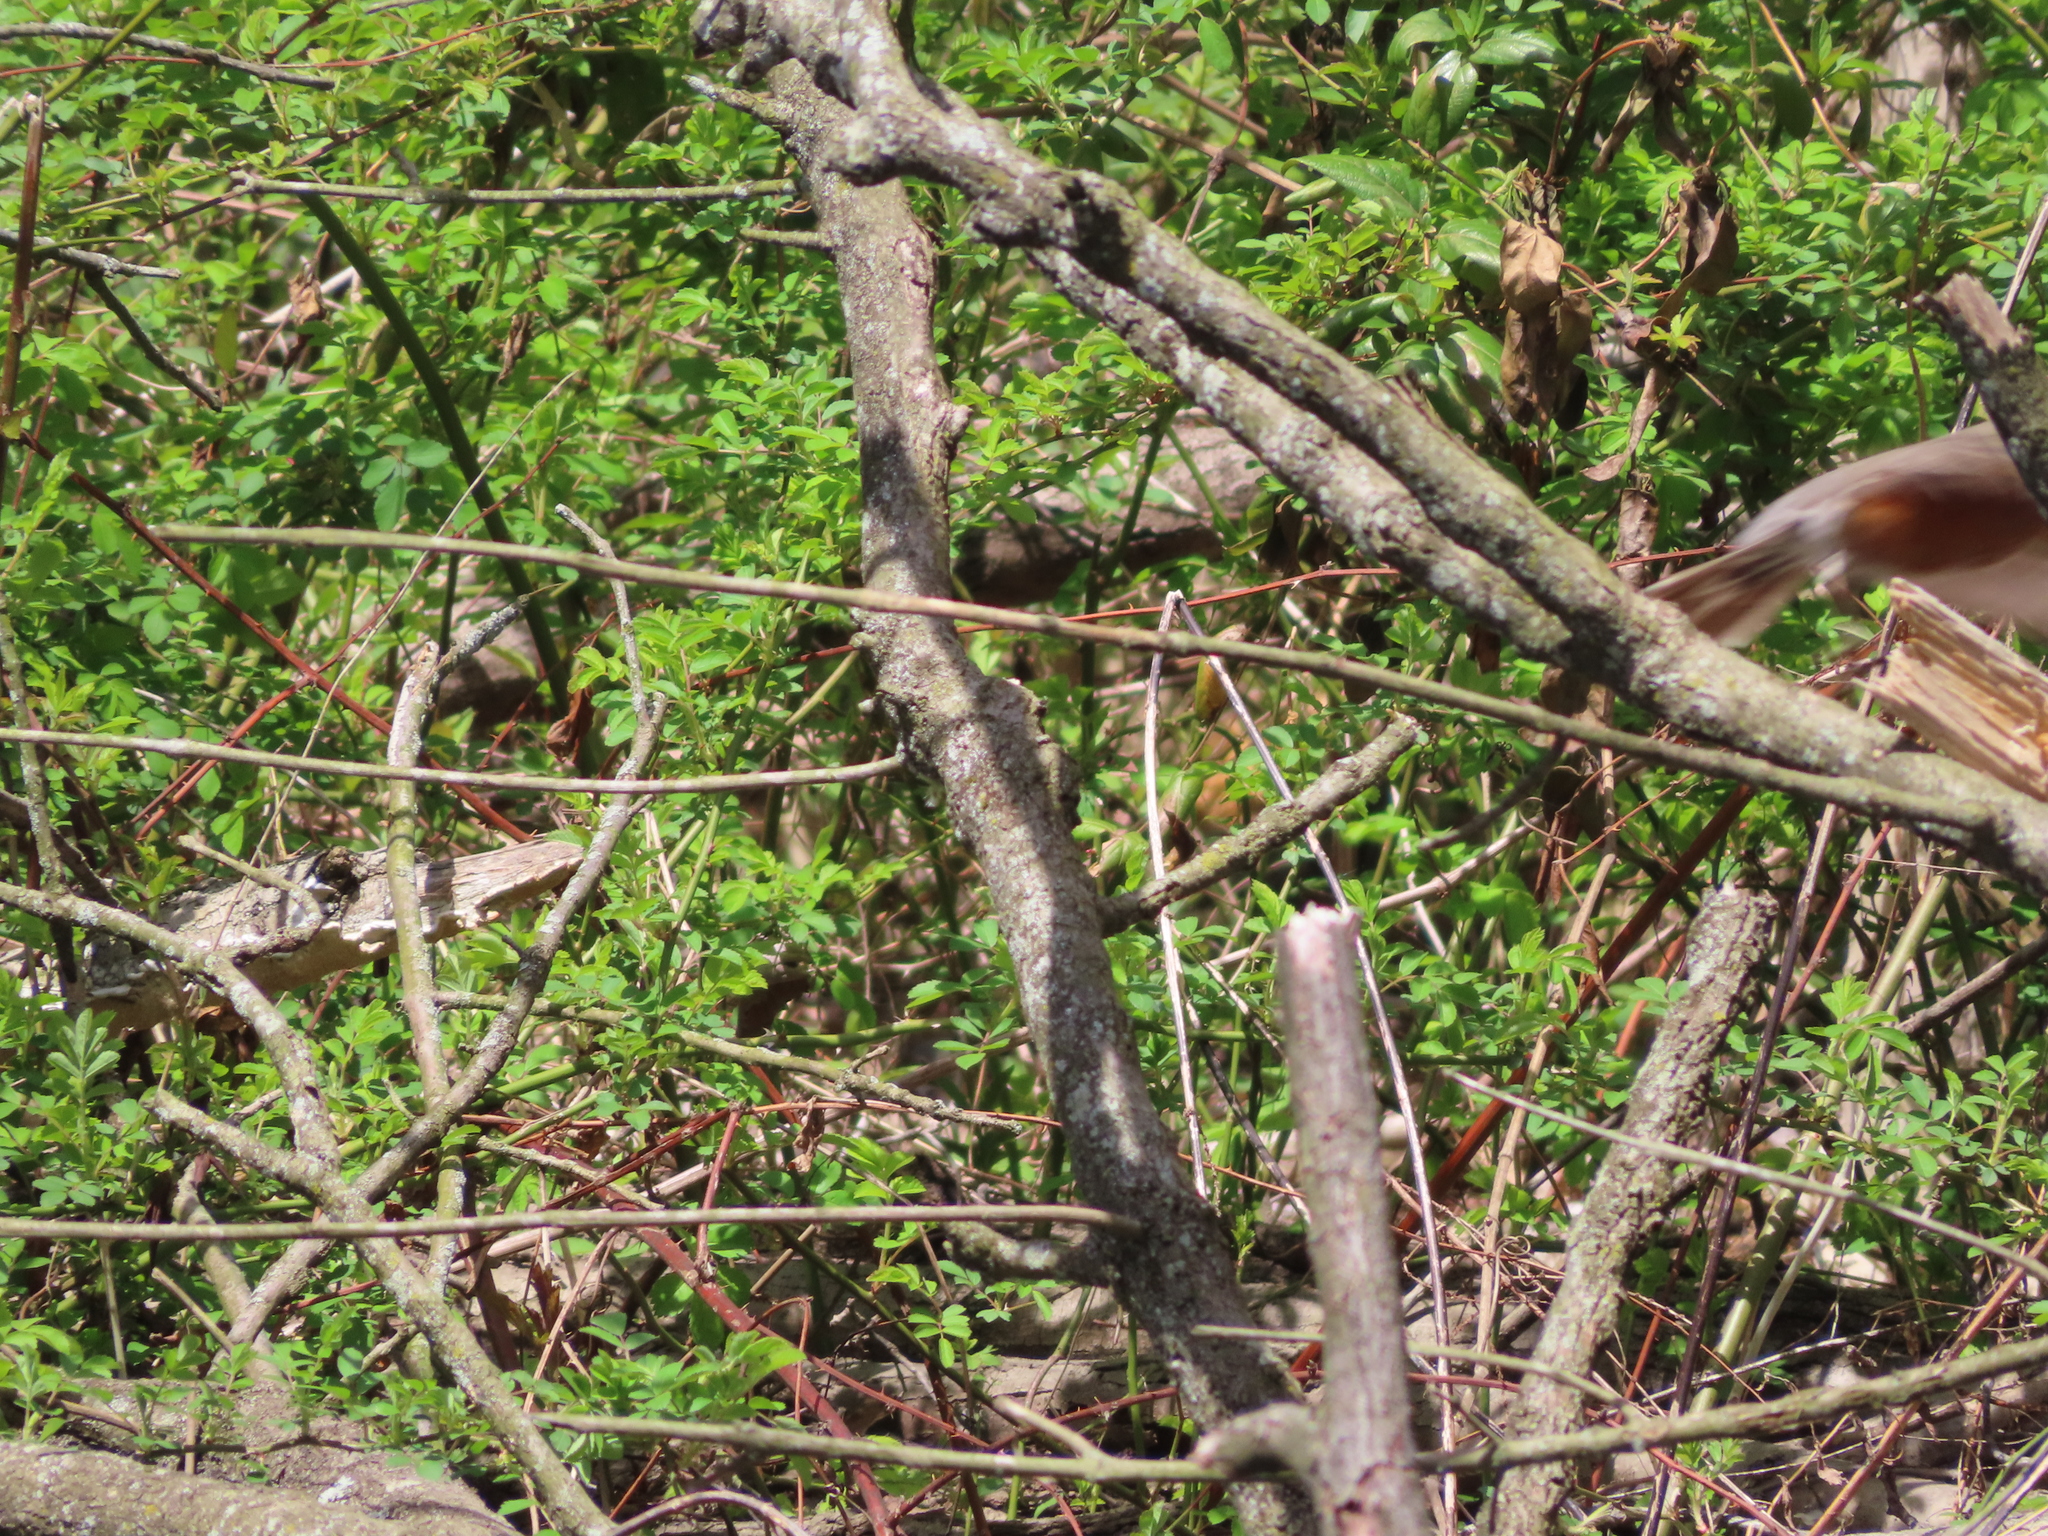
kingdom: Animalia
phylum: Chordata
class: Aves
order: Passeriformes
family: Turdidae
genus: Turdus
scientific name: Turdus migratorius
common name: American robin
